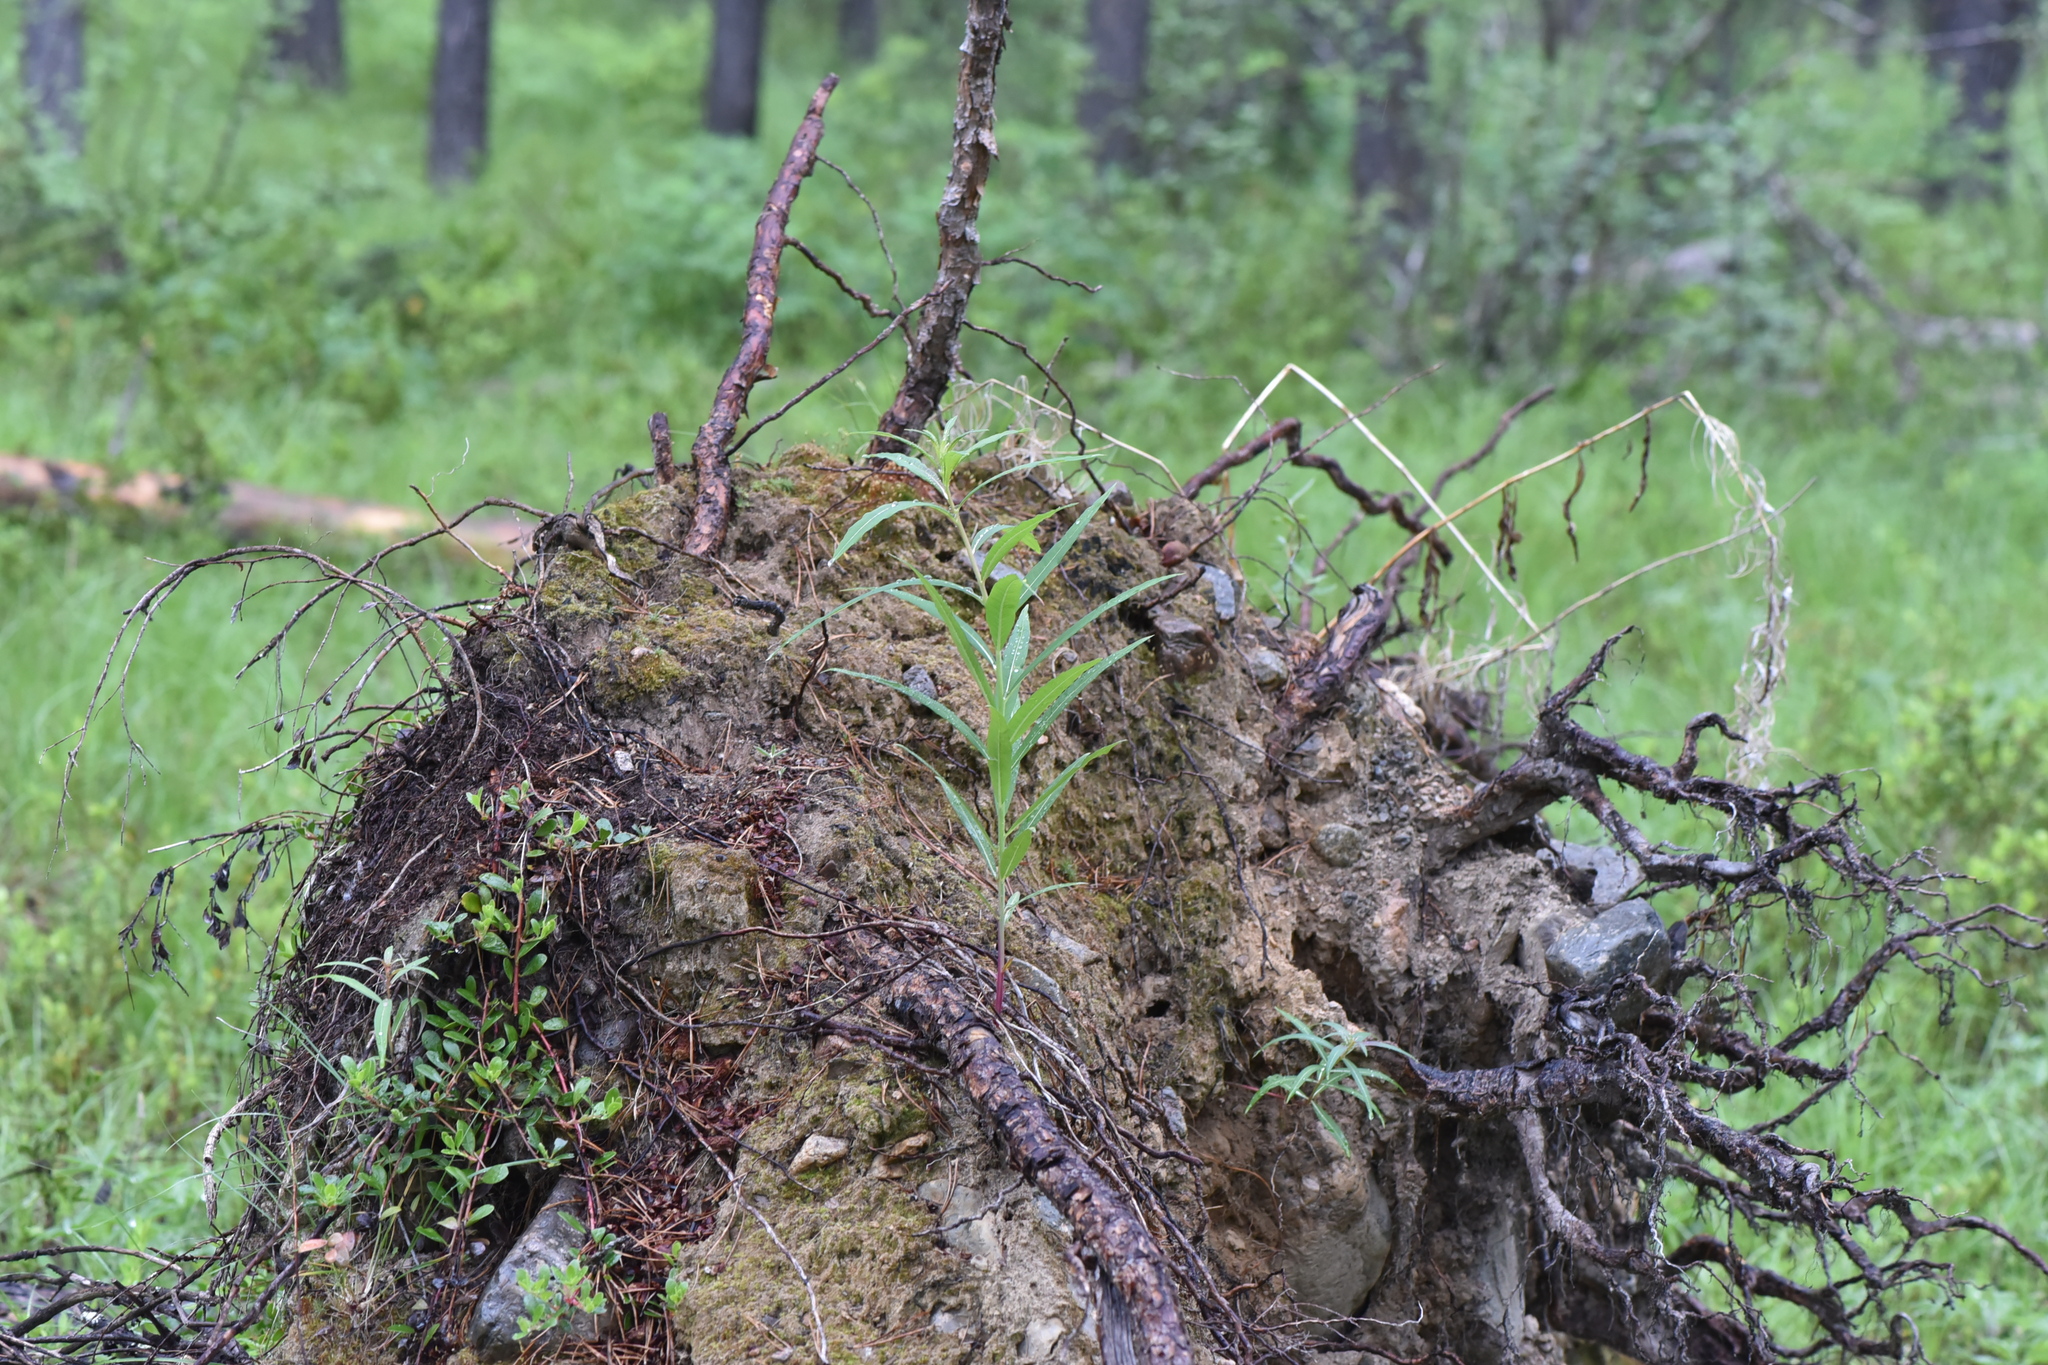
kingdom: Plantae
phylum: Tracheophyta
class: Magnoliopsida
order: Myrtales
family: Onagraceae
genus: Chamaenerion
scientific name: Chamaenerion angustifolium
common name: Fireweed
